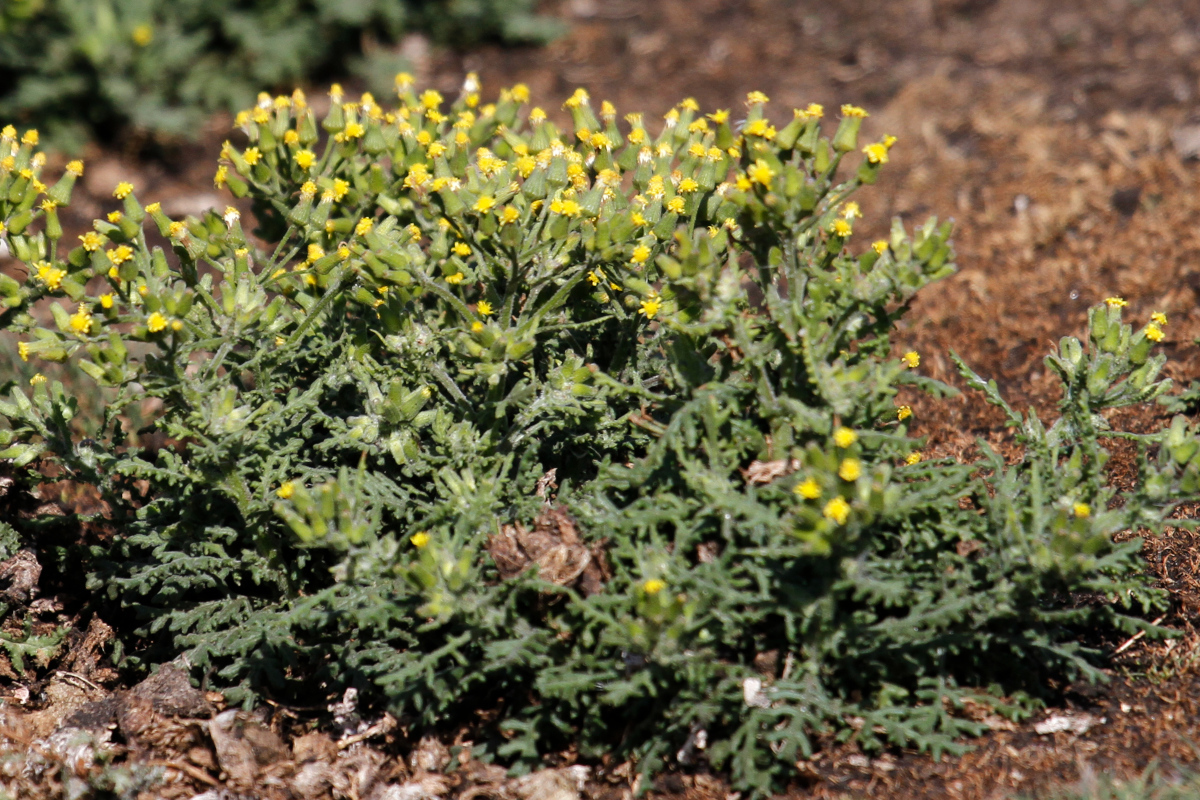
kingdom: Plantae
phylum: Tracheophyta
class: Magnoliopsida
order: Asterales
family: Asteraceae
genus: Senecio
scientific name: Senecio sylvaticus
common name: Woodland ragwort
